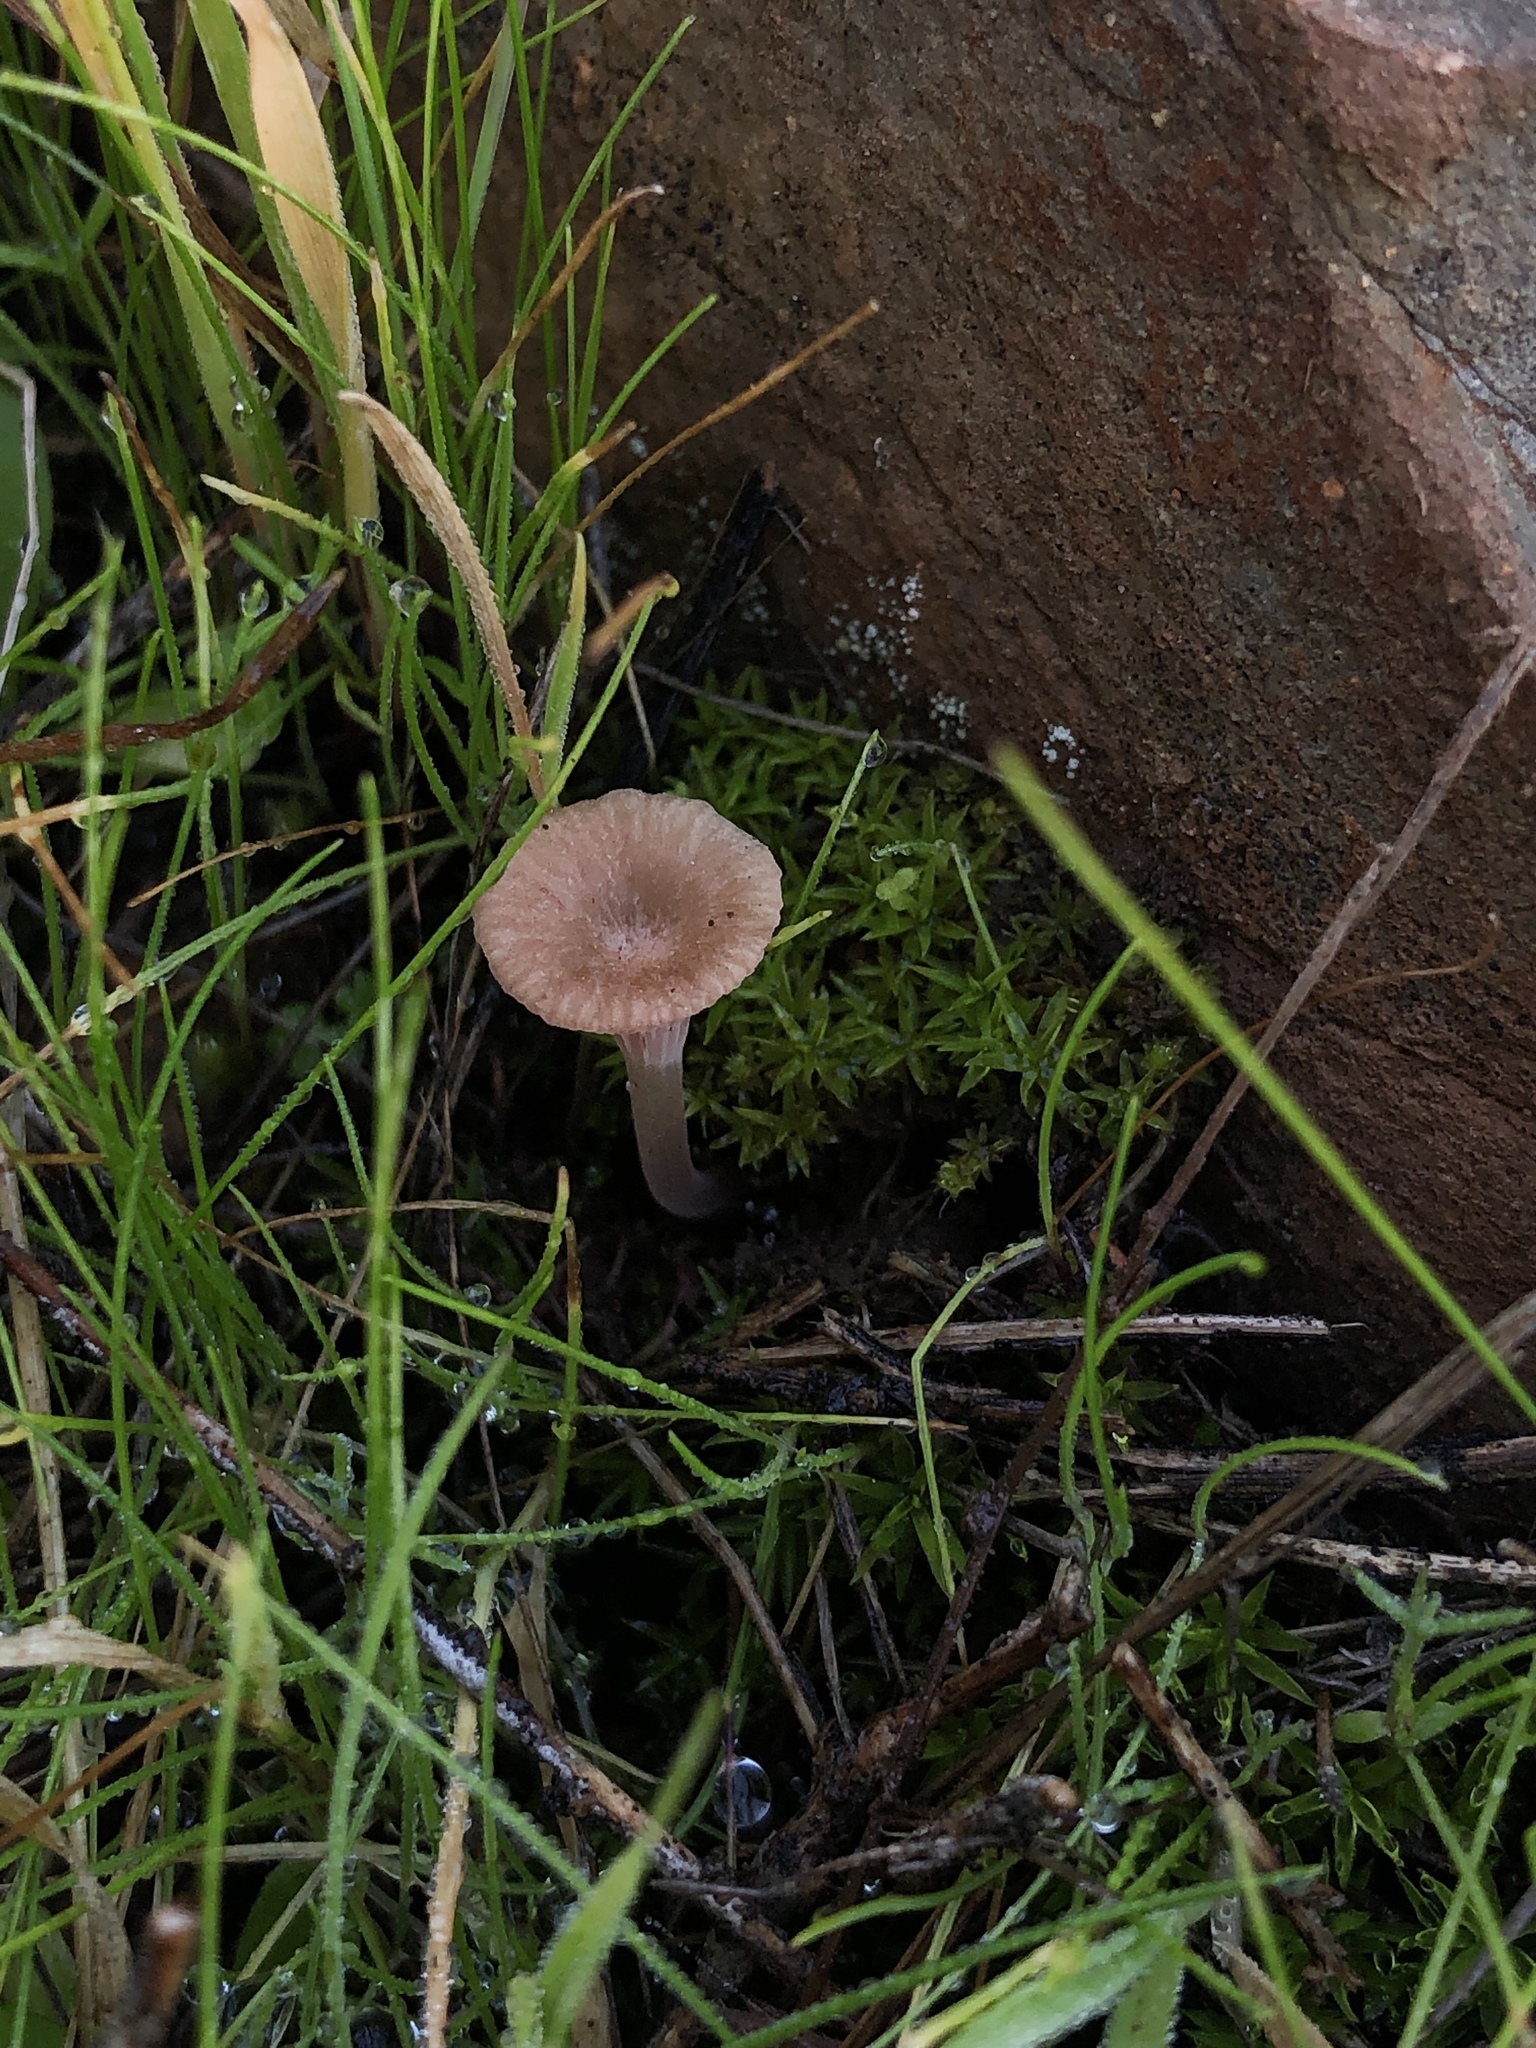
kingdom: Fungi
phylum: Basidiomycota
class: Agaricomycetes
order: Hymenochaetales
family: Rickenellaceae
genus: Contumyces
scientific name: Contumyces rosellus
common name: Rosy navel
